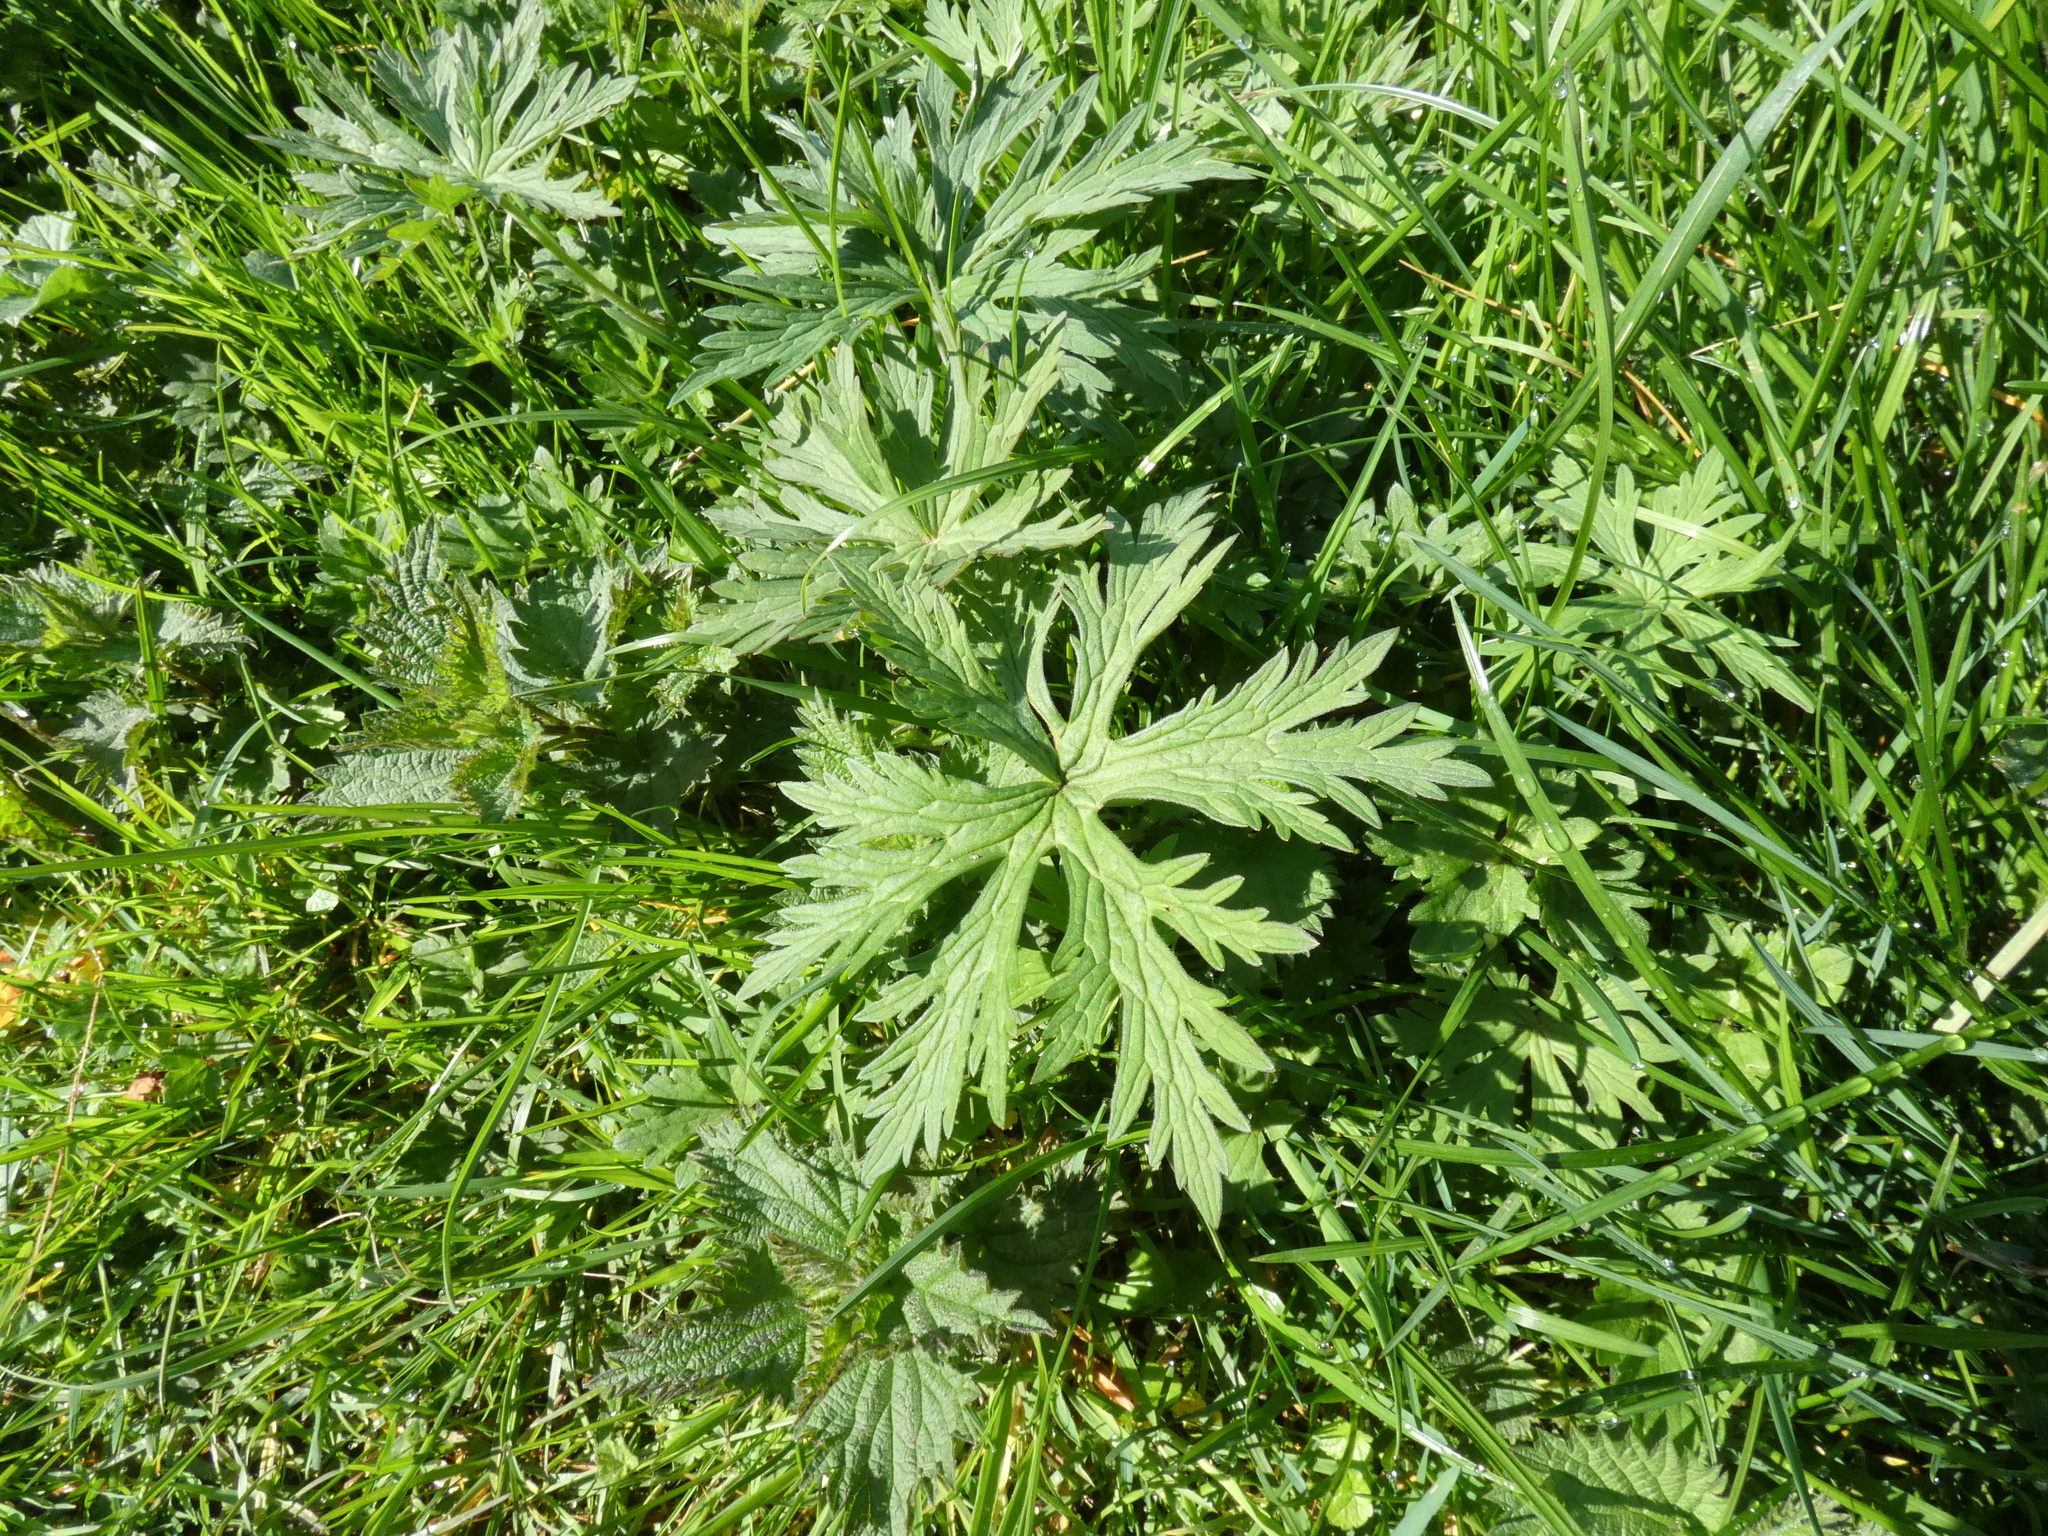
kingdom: Plantae
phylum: Tracheophyta
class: Magnoliopsida
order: Geraniales
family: Geraniaceae
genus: Geranium
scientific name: Geranium pratense
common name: Meadow crane's-bill
